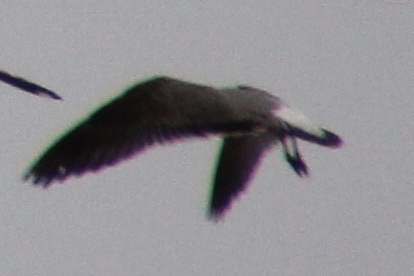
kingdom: Animalia
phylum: Chordata
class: Aves
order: Charadriiformes
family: Laridae
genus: Leucophaeus
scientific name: Leucophaeus atricilla
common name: Laughing gull
